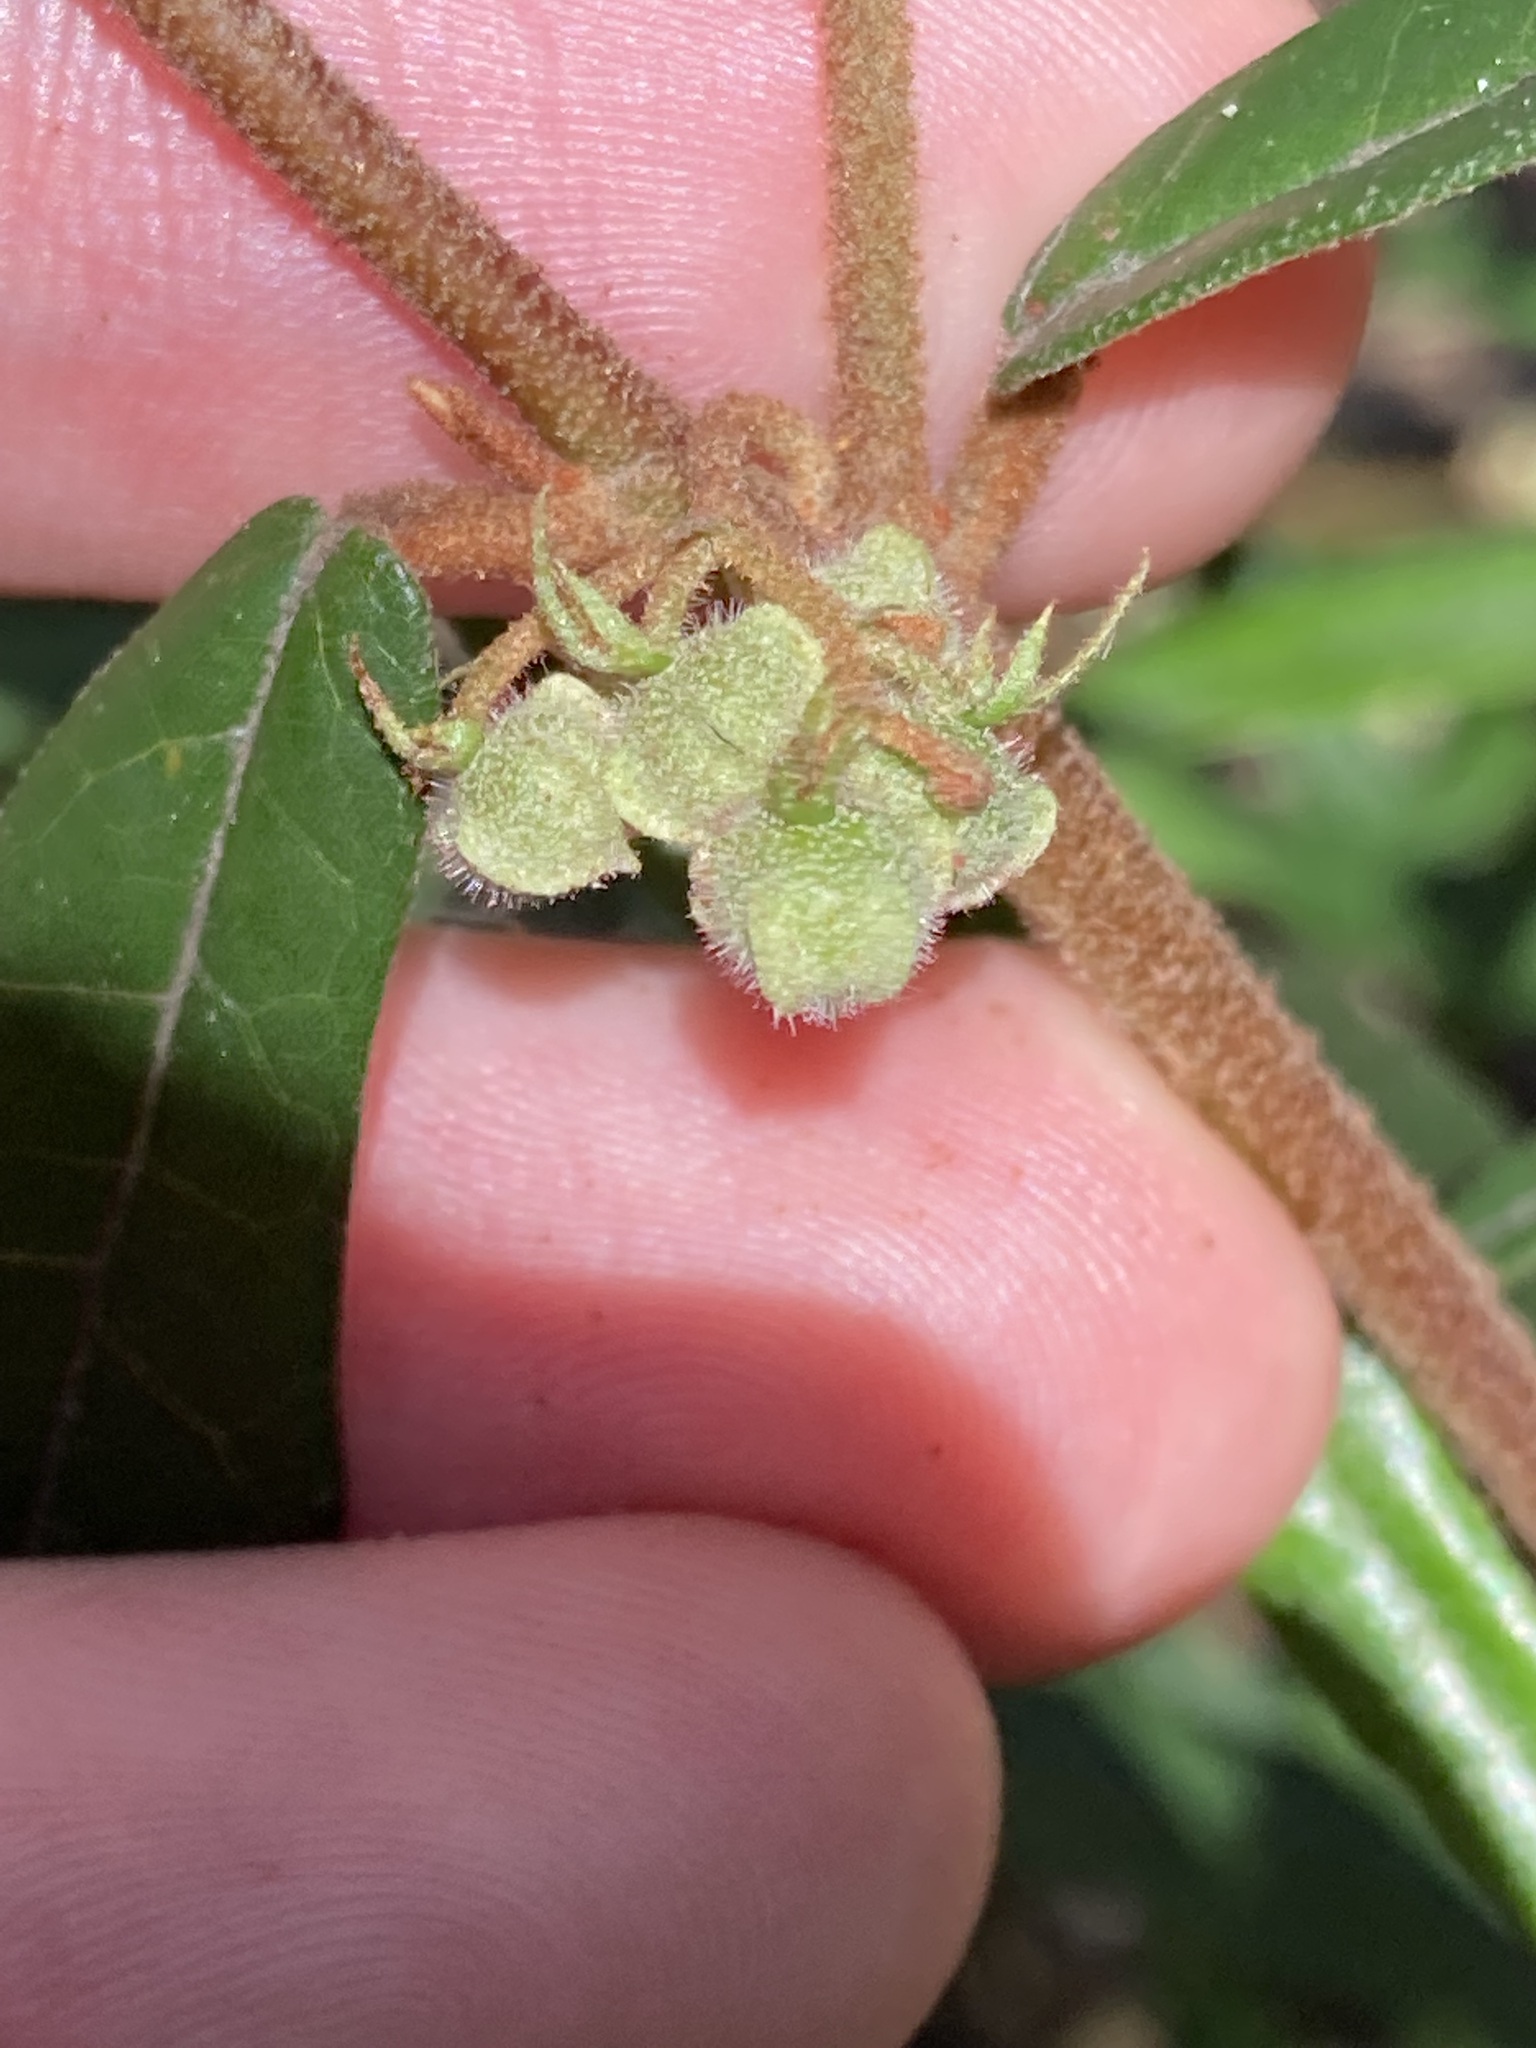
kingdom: Plantae
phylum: Tracheophyta
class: Magnoliopsida
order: Malvales
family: Malvaceae
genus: Lasiopetalum
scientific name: Lasiopetalum parviflorum
